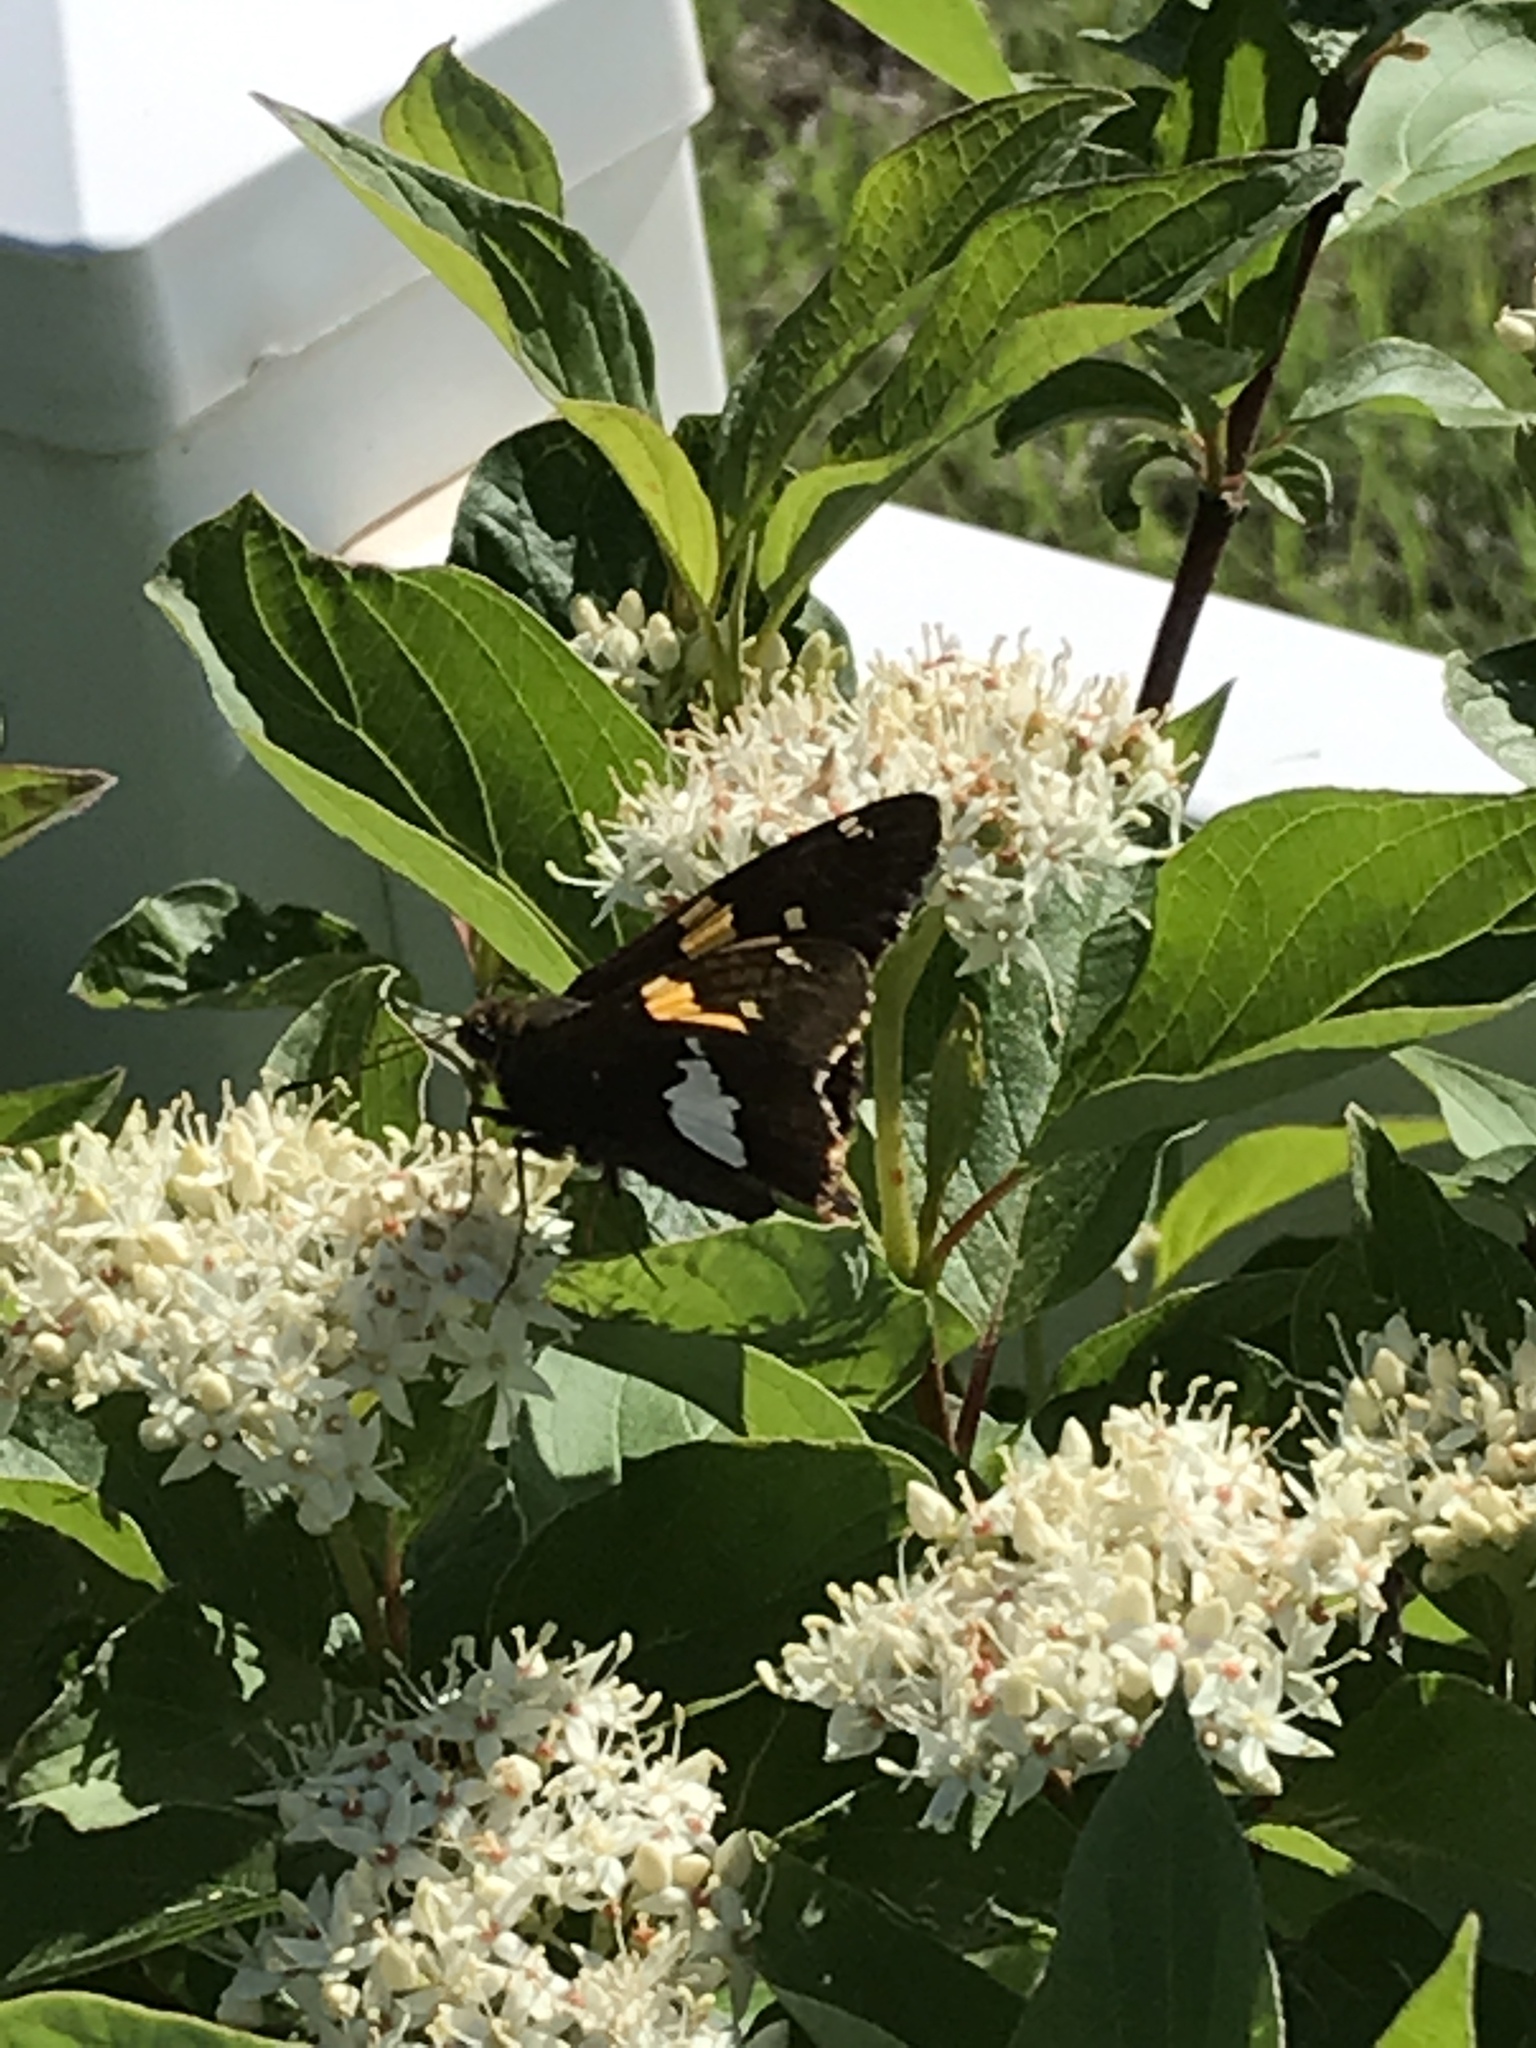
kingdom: Animalia
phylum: Arthropoda
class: Insecta
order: Lepidoptera
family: Hesperiidae
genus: Epargyreus
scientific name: Epargyreus clarus
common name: Silver-spotted skipper
